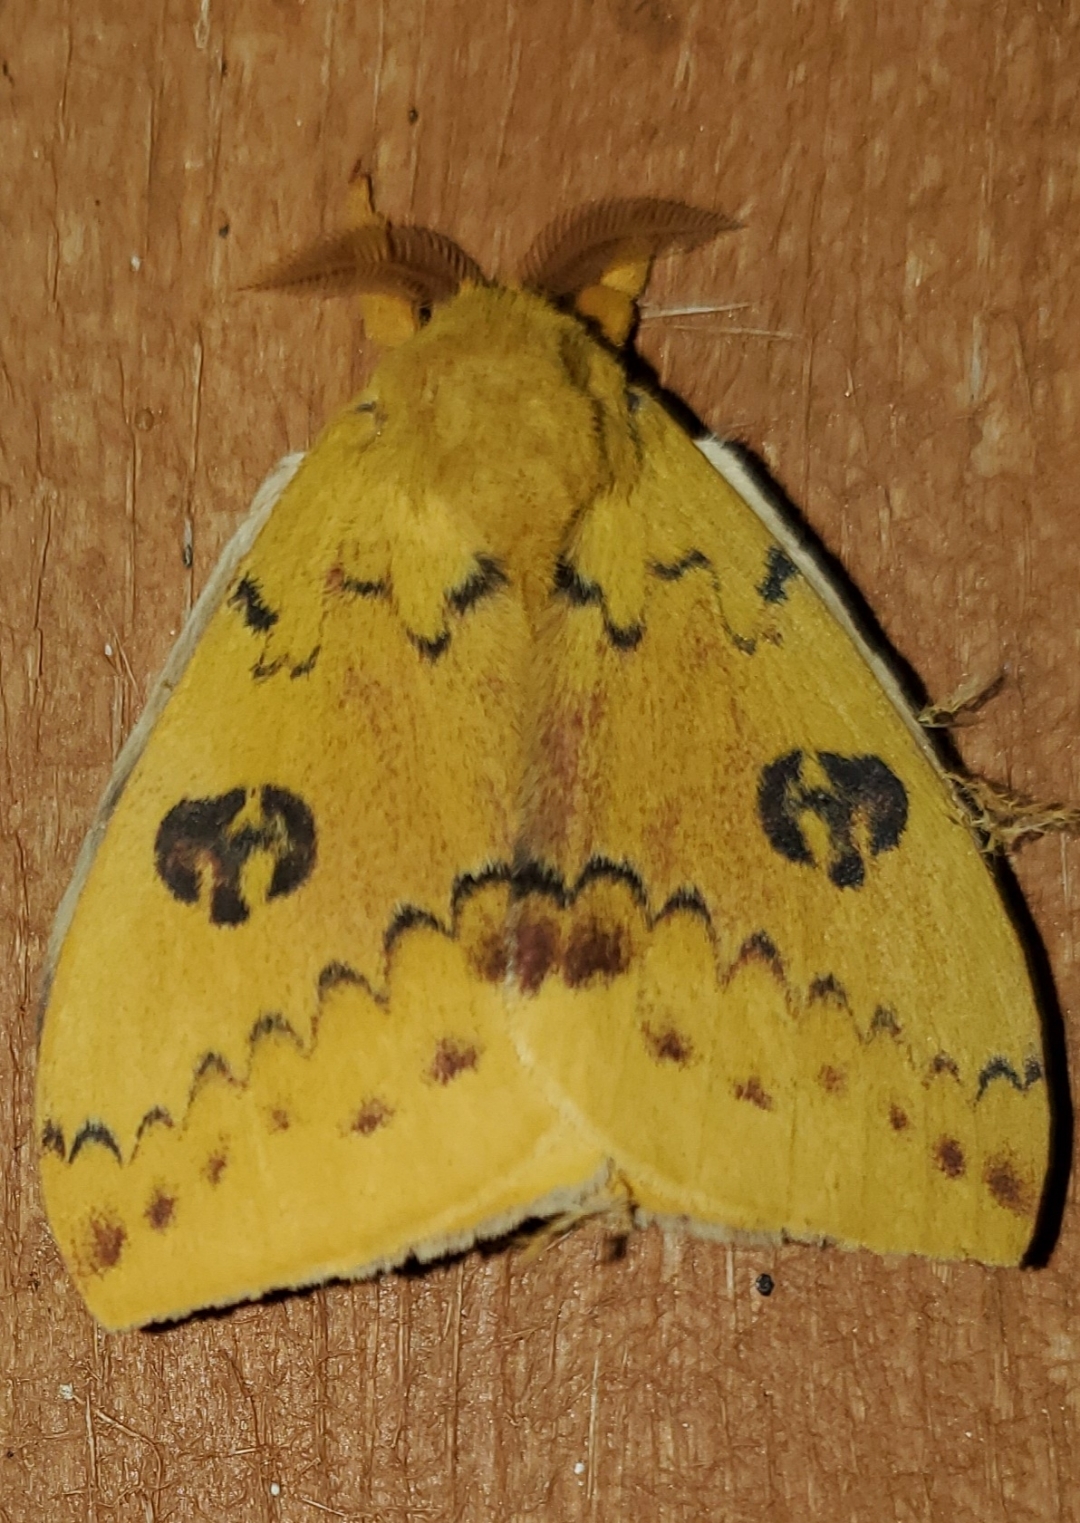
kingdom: Animalia
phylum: Arthropoda
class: Insecta
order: Lepidoptera
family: Saturniidae
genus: Automeris
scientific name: Automeris io
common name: Io moth
